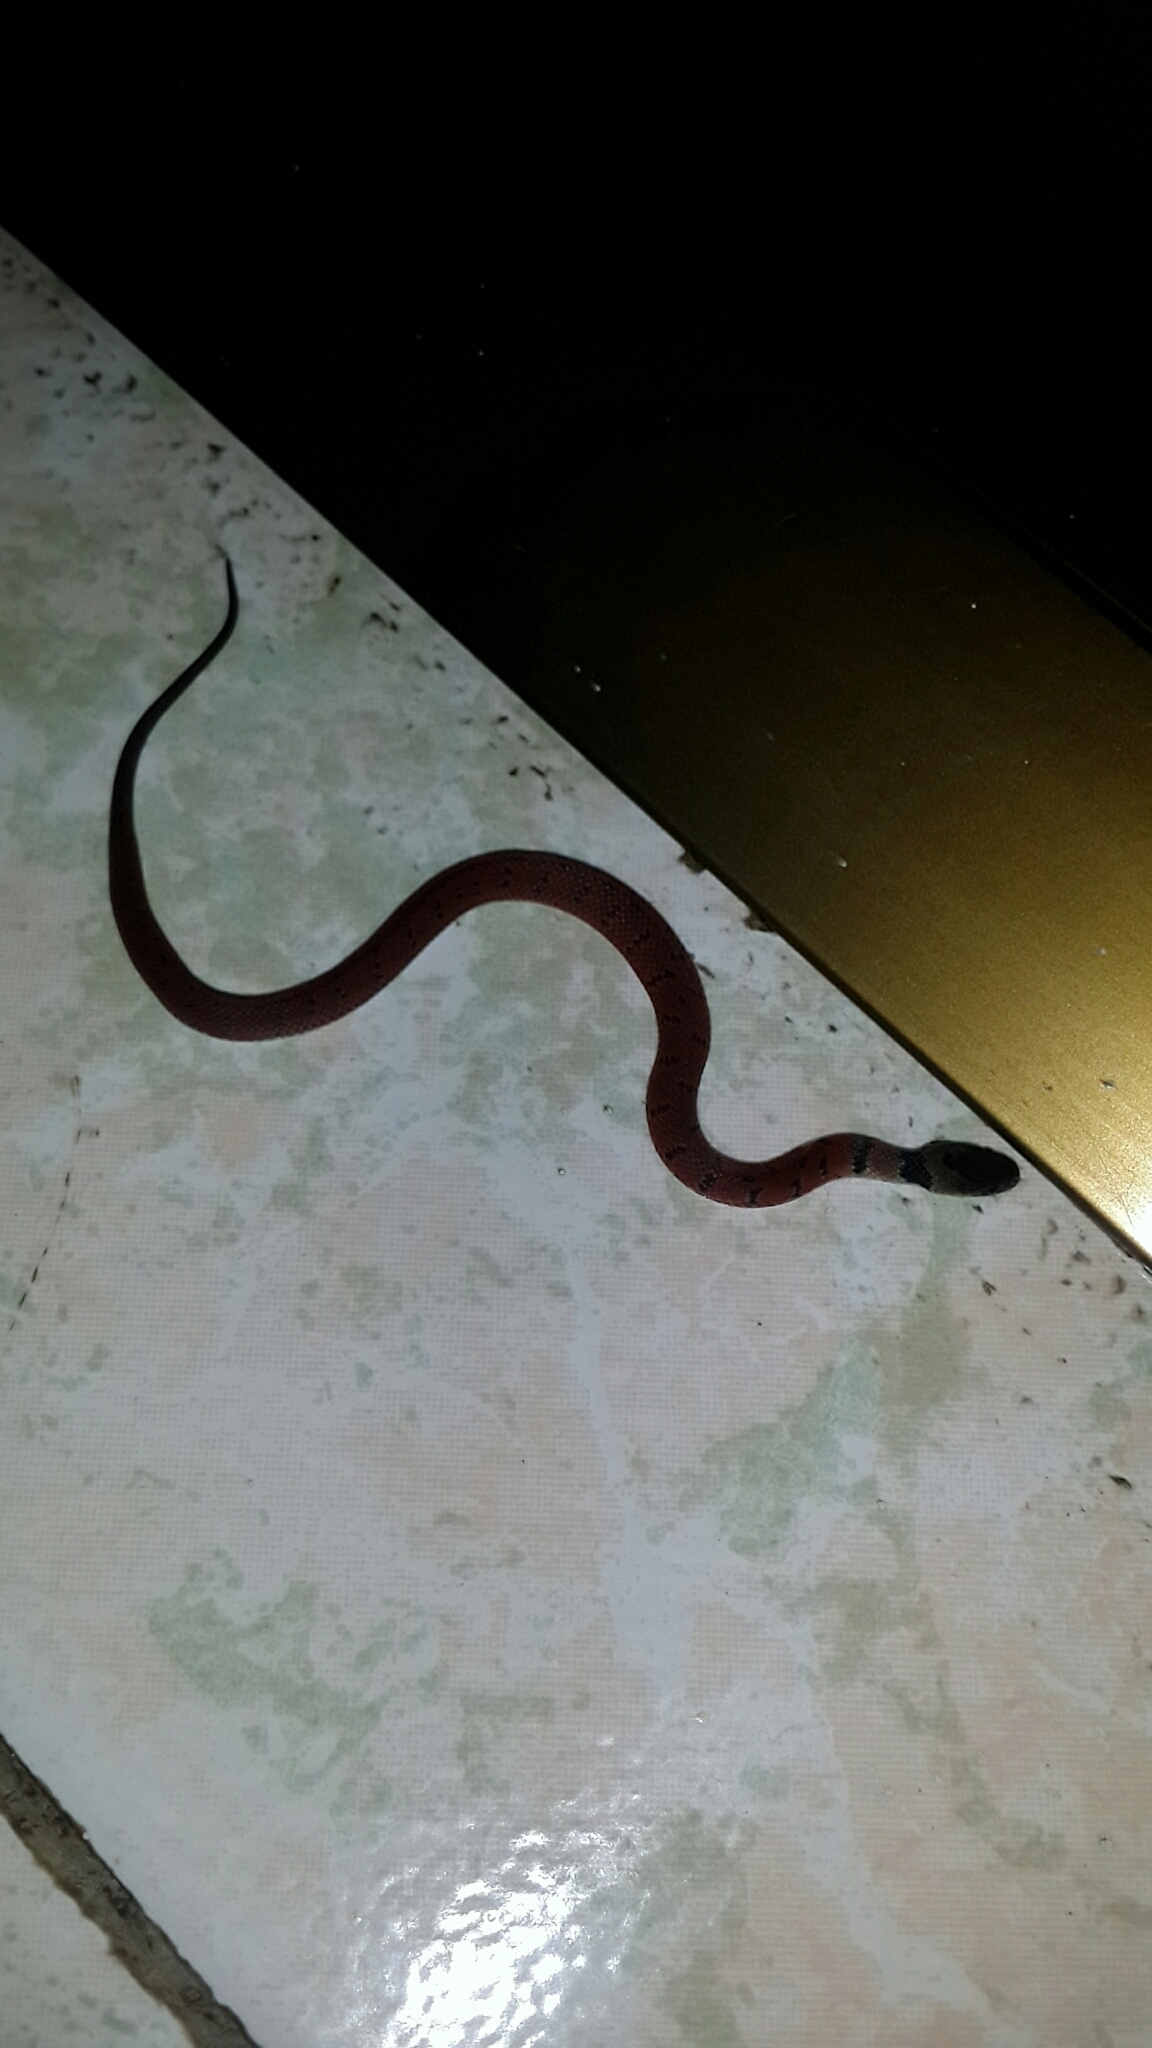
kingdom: Animalia
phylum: Chordata
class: Squamata
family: Colubridae
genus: Ninia
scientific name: Ninia sebae
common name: Redback coffee snake
